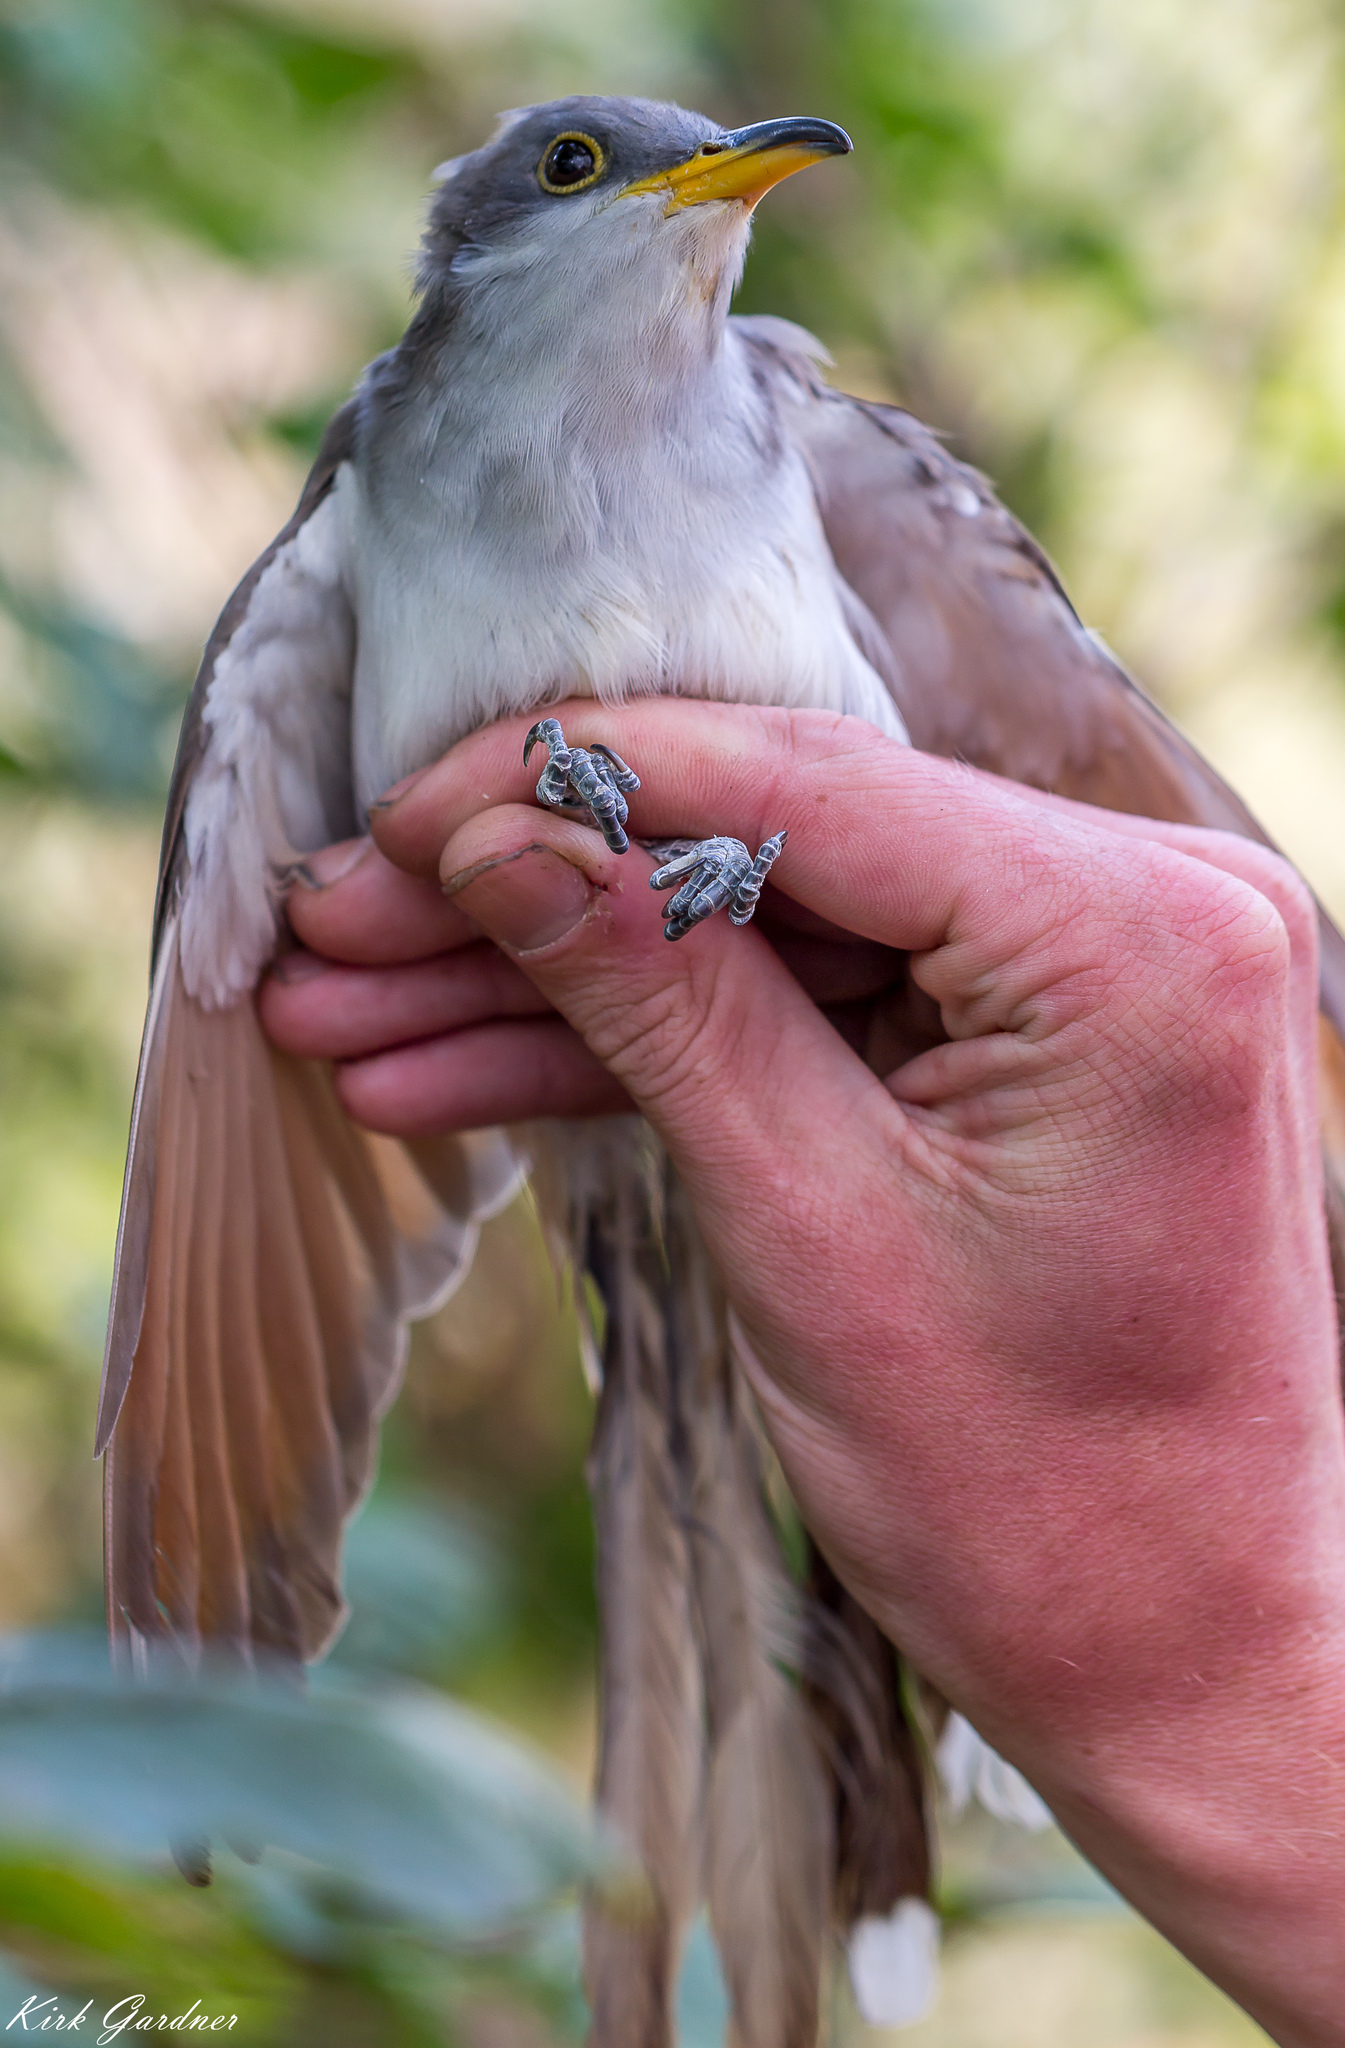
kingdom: Animalia
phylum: Chordata
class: Aves
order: Cuculiformes
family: Cuculidae
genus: Coccyzus
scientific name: Coccyzus americanus
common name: Yellow-billed cuckoo
